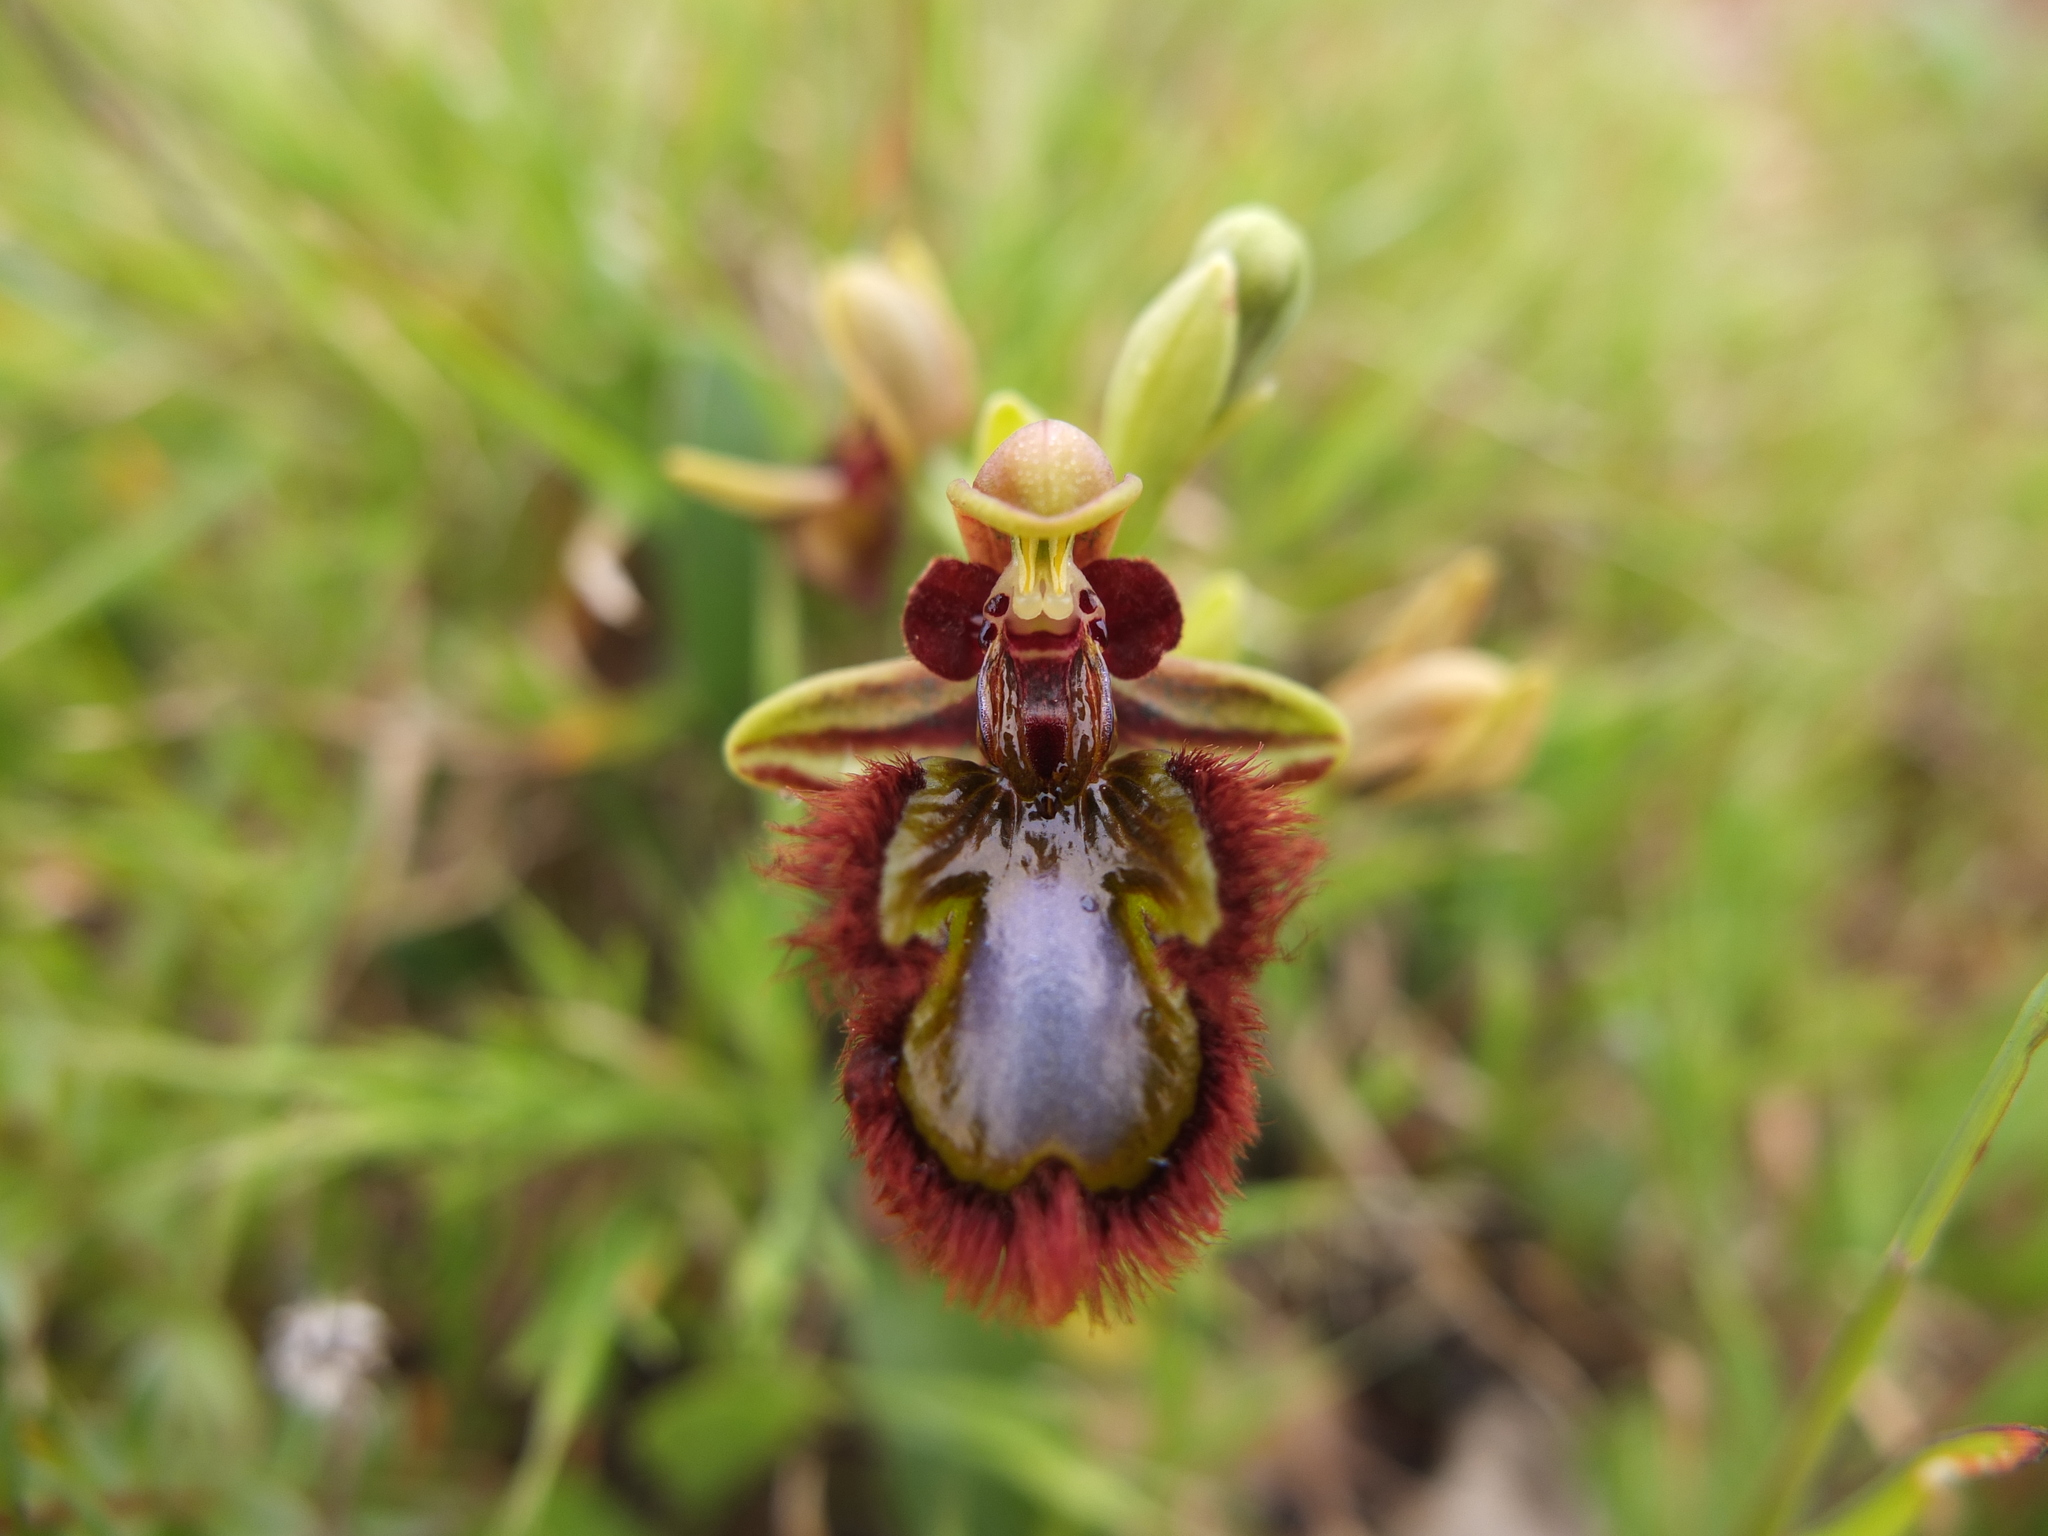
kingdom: Plantae
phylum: Tracheophyta
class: Liliopsida
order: Asparagales
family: Orchidaceae
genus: Ophrys
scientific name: Ophrys speculum
